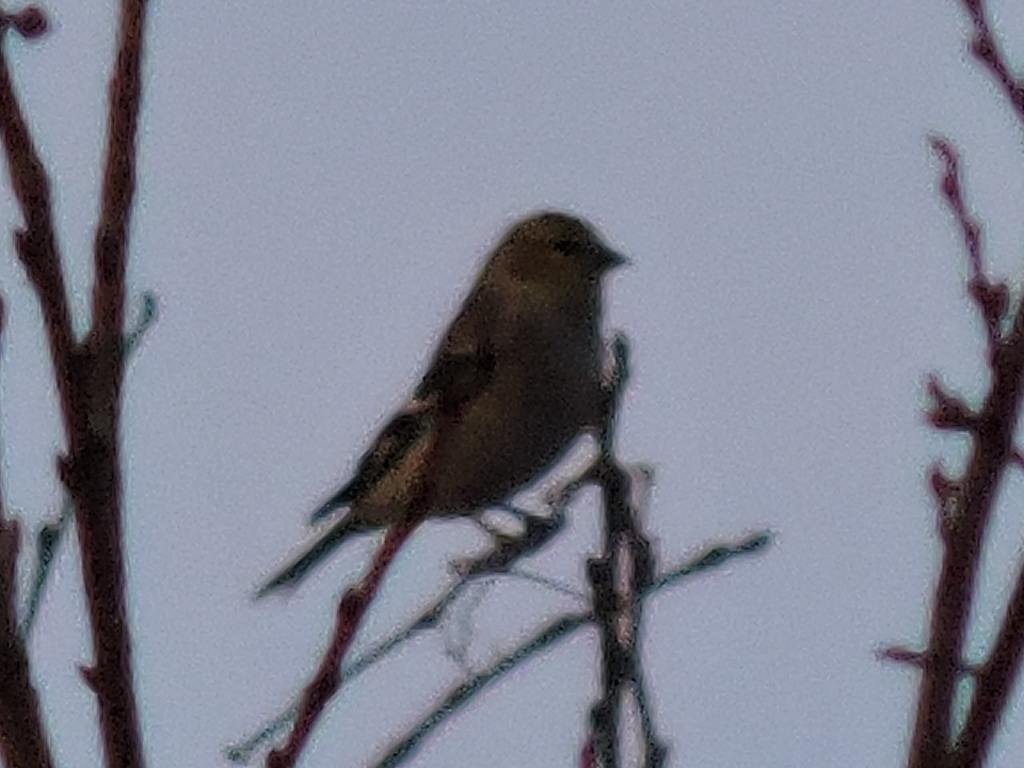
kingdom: Animalia
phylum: Chordata
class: Aves
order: Passeriformes
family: Fringillidae
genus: Spinus
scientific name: Spinus tristis
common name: American goldfinch
